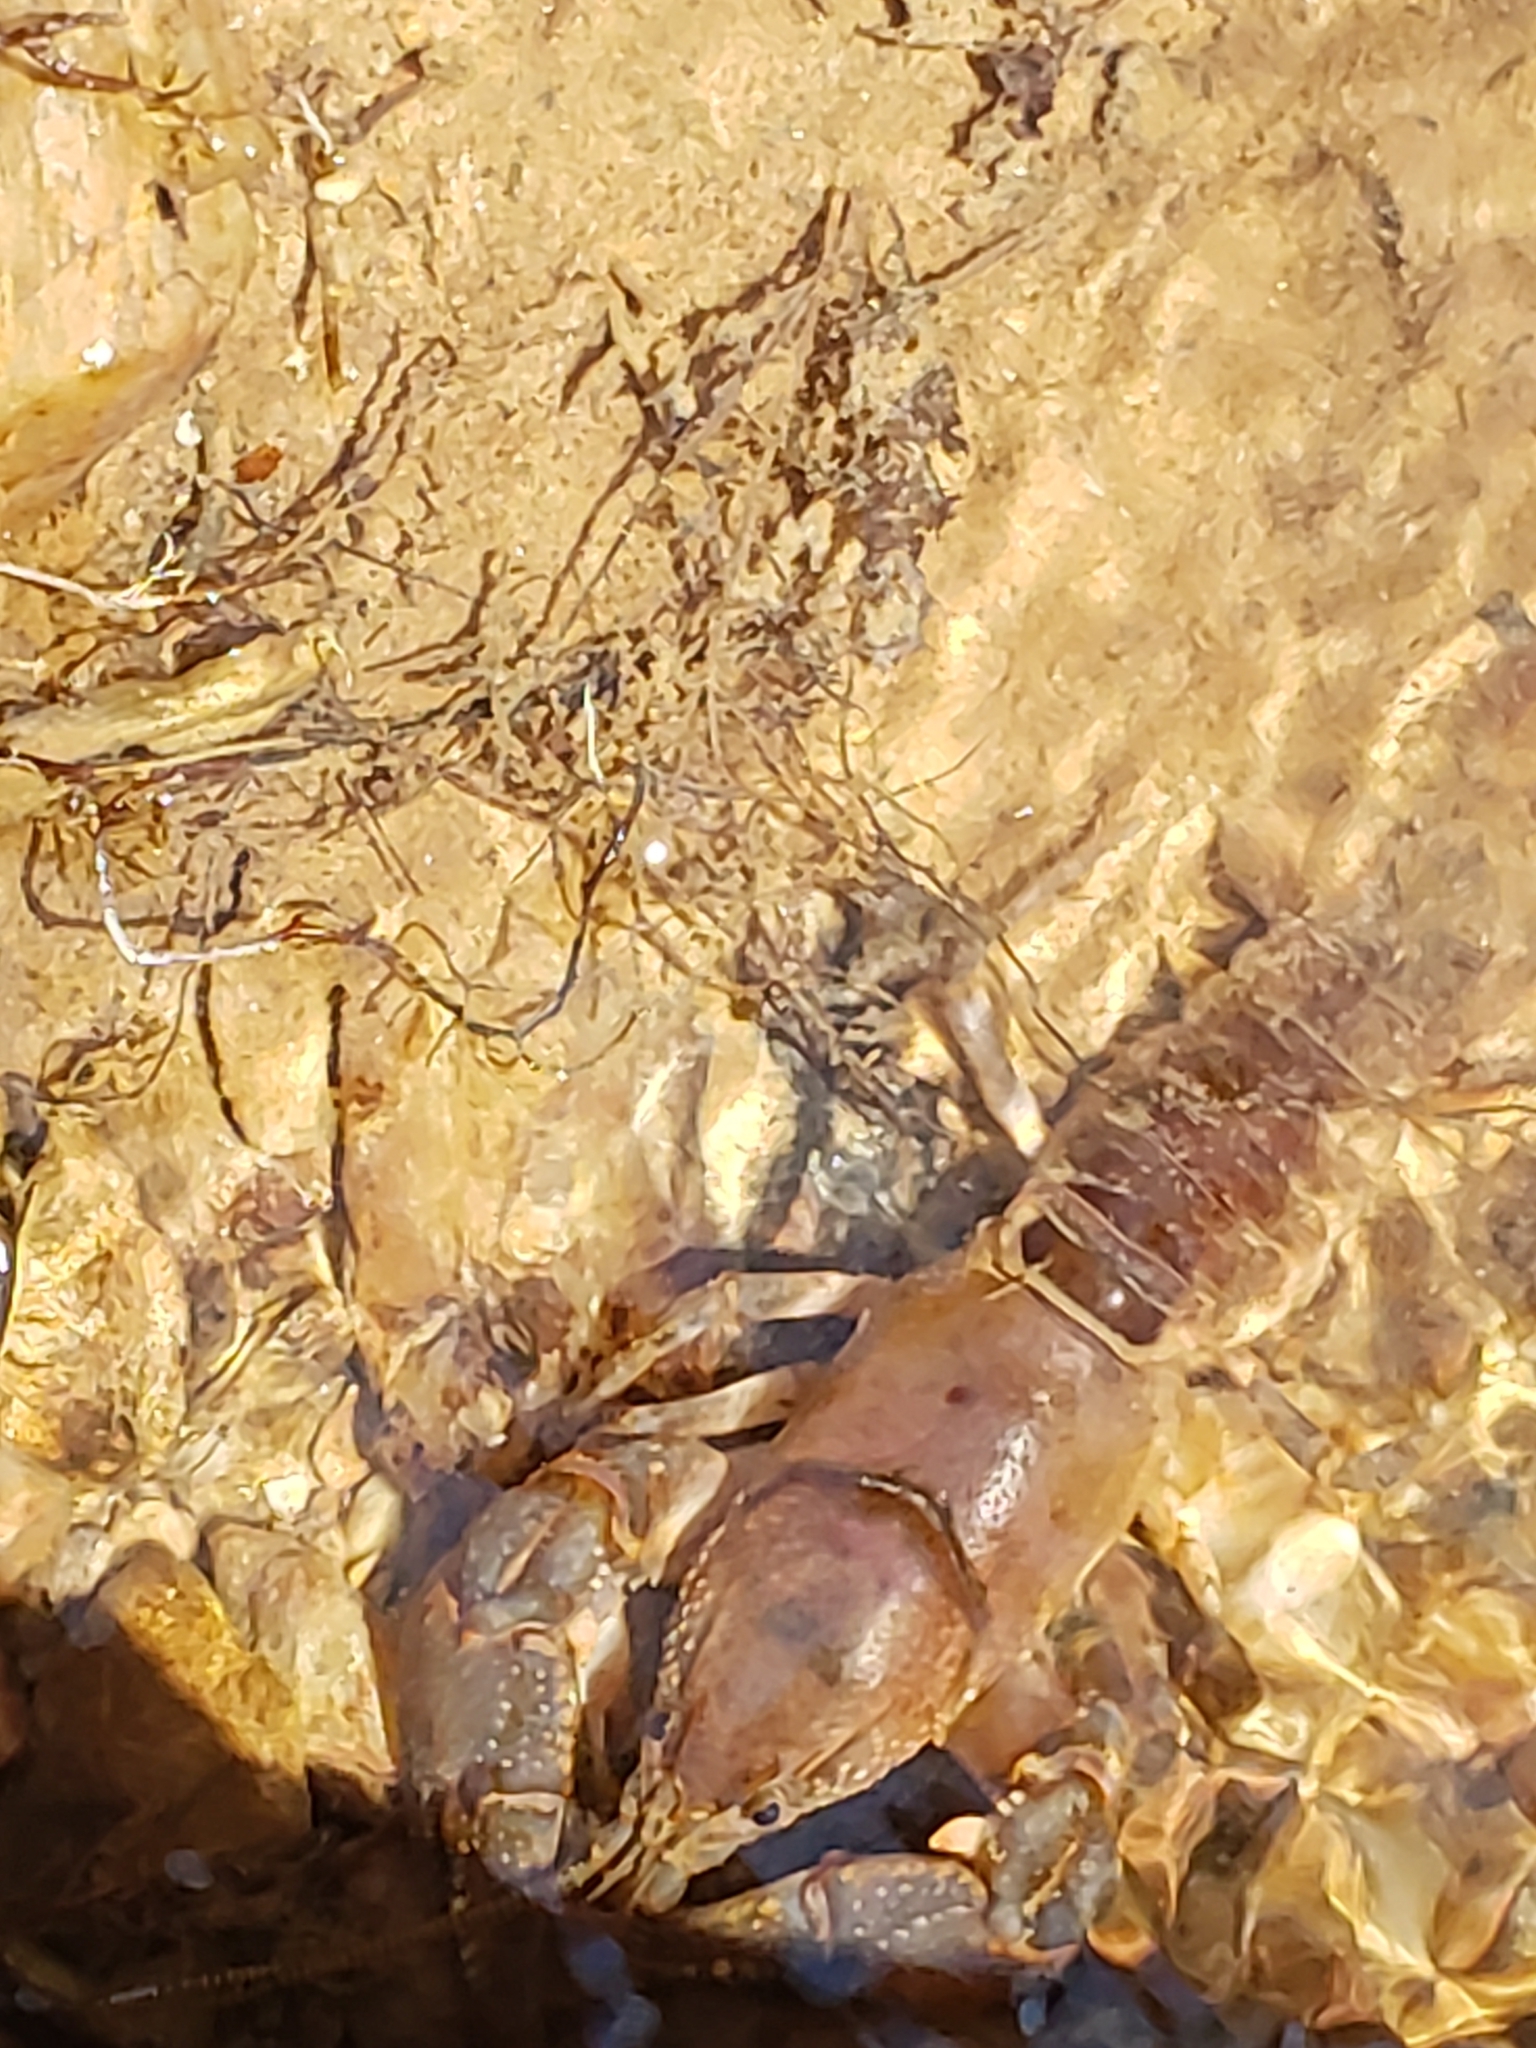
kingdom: Animalia
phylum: Arthropoda
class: Malacostraca
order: Decapoda
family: Cambaridae
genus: Cambarus
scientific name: Cambarus bartonii
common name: Appalachian brook crayfish
